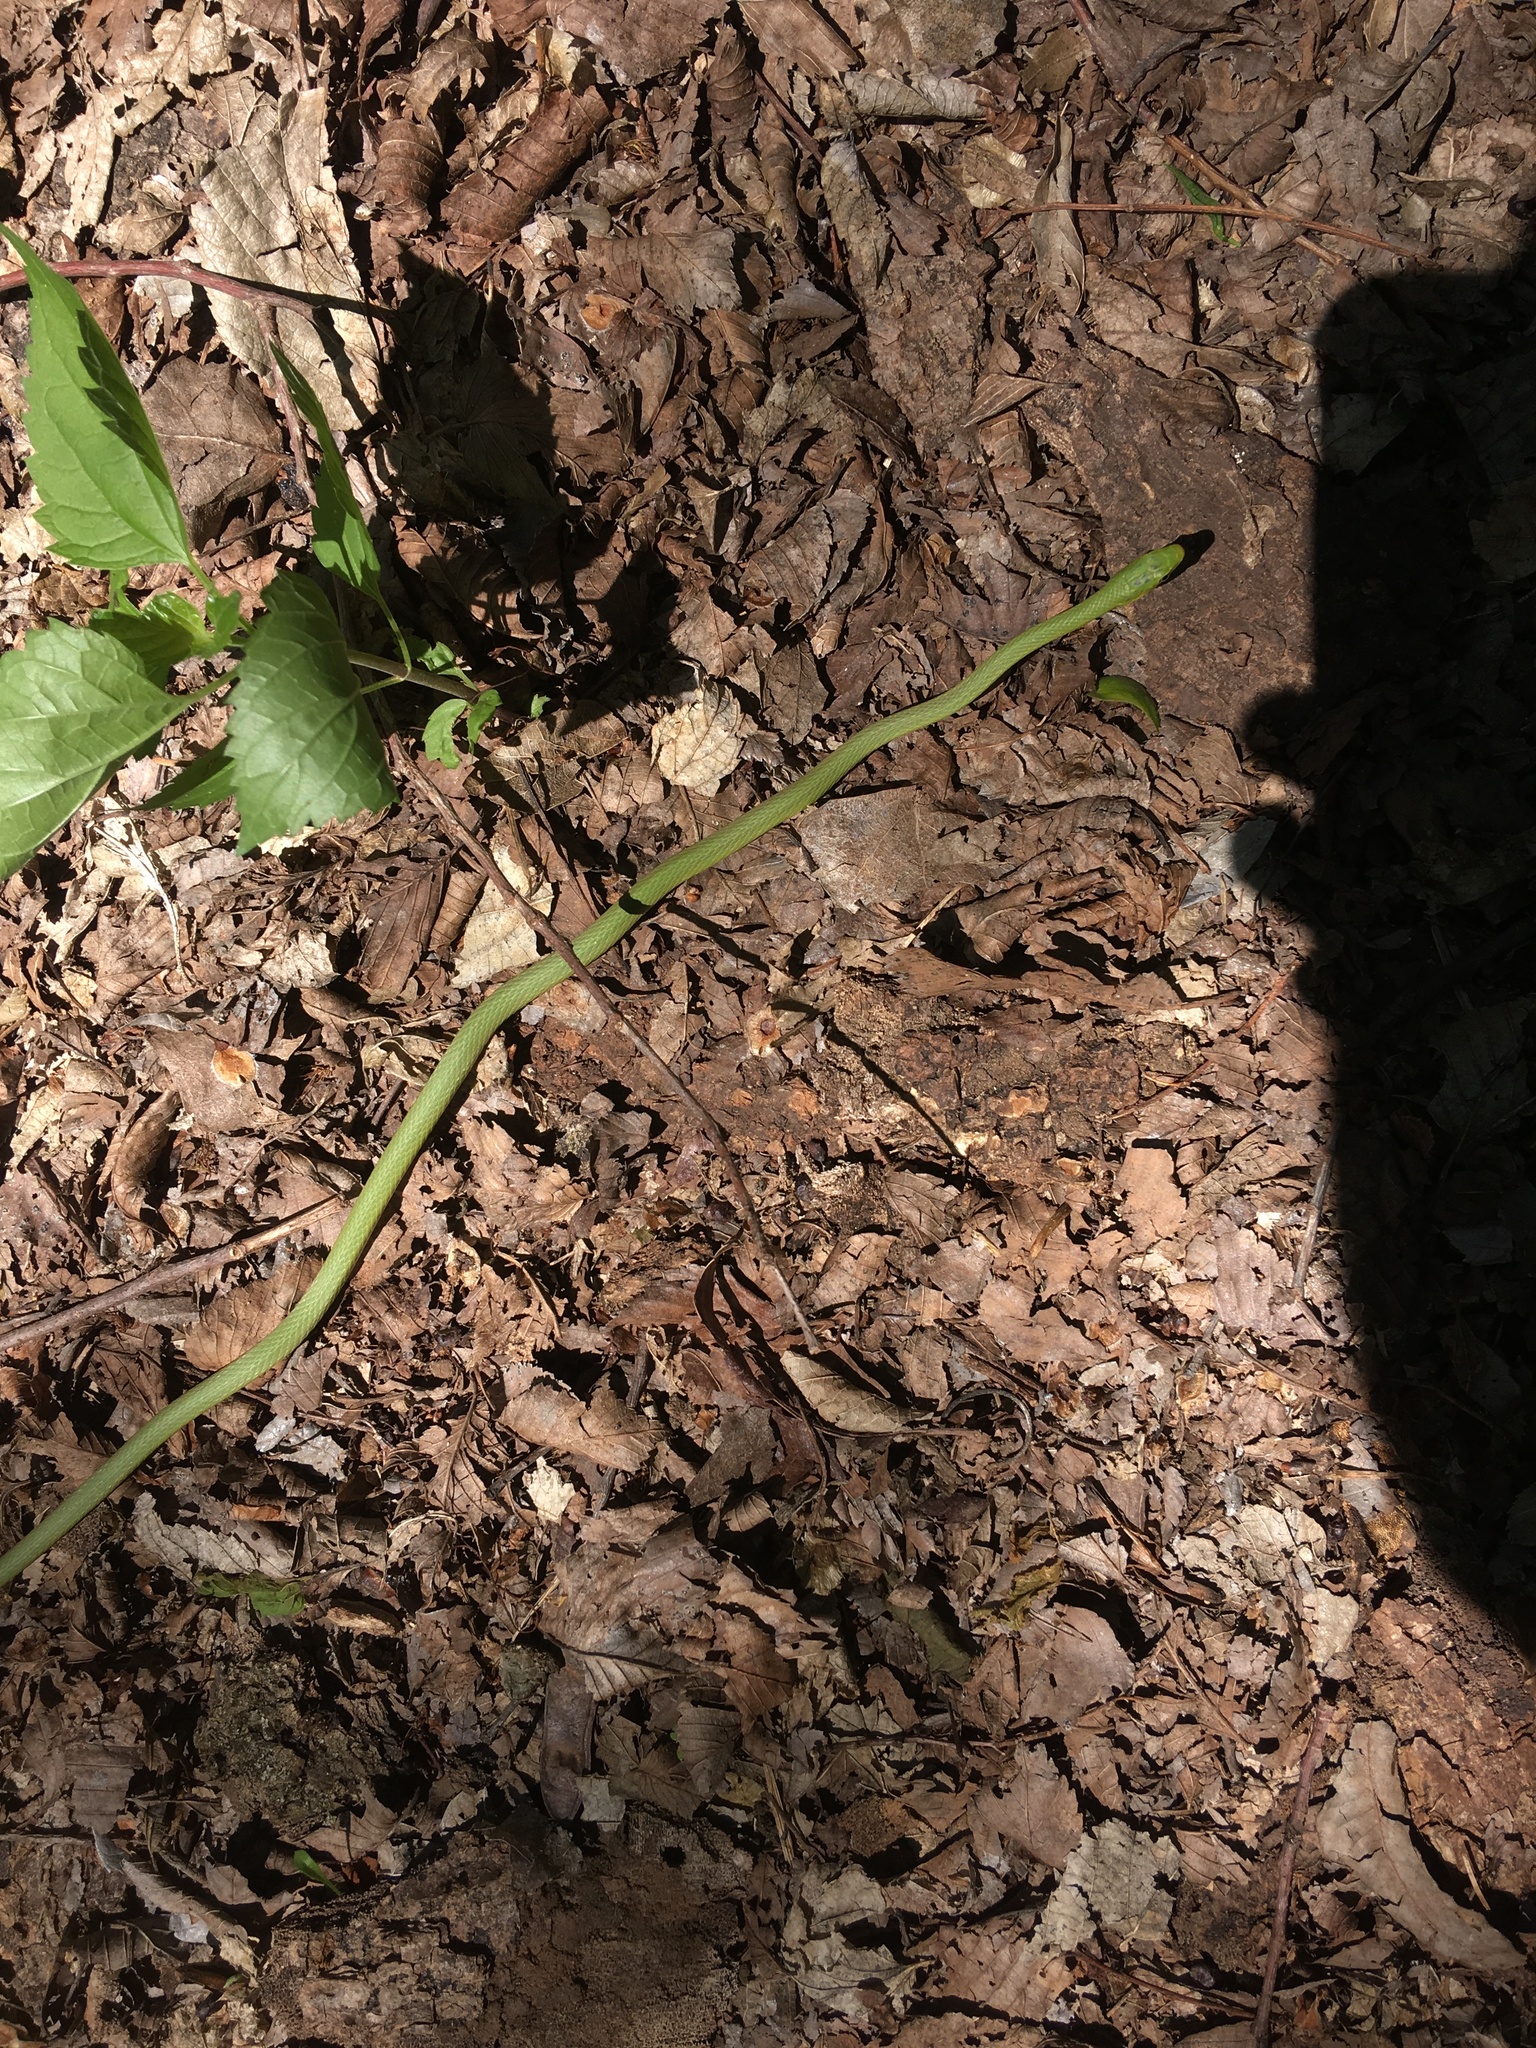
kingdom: Animalia
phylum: Chordata
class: Squamata
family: Colubridae
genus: Opheodrys
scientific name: Opheodrys aestivus
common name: Rough greensnake
